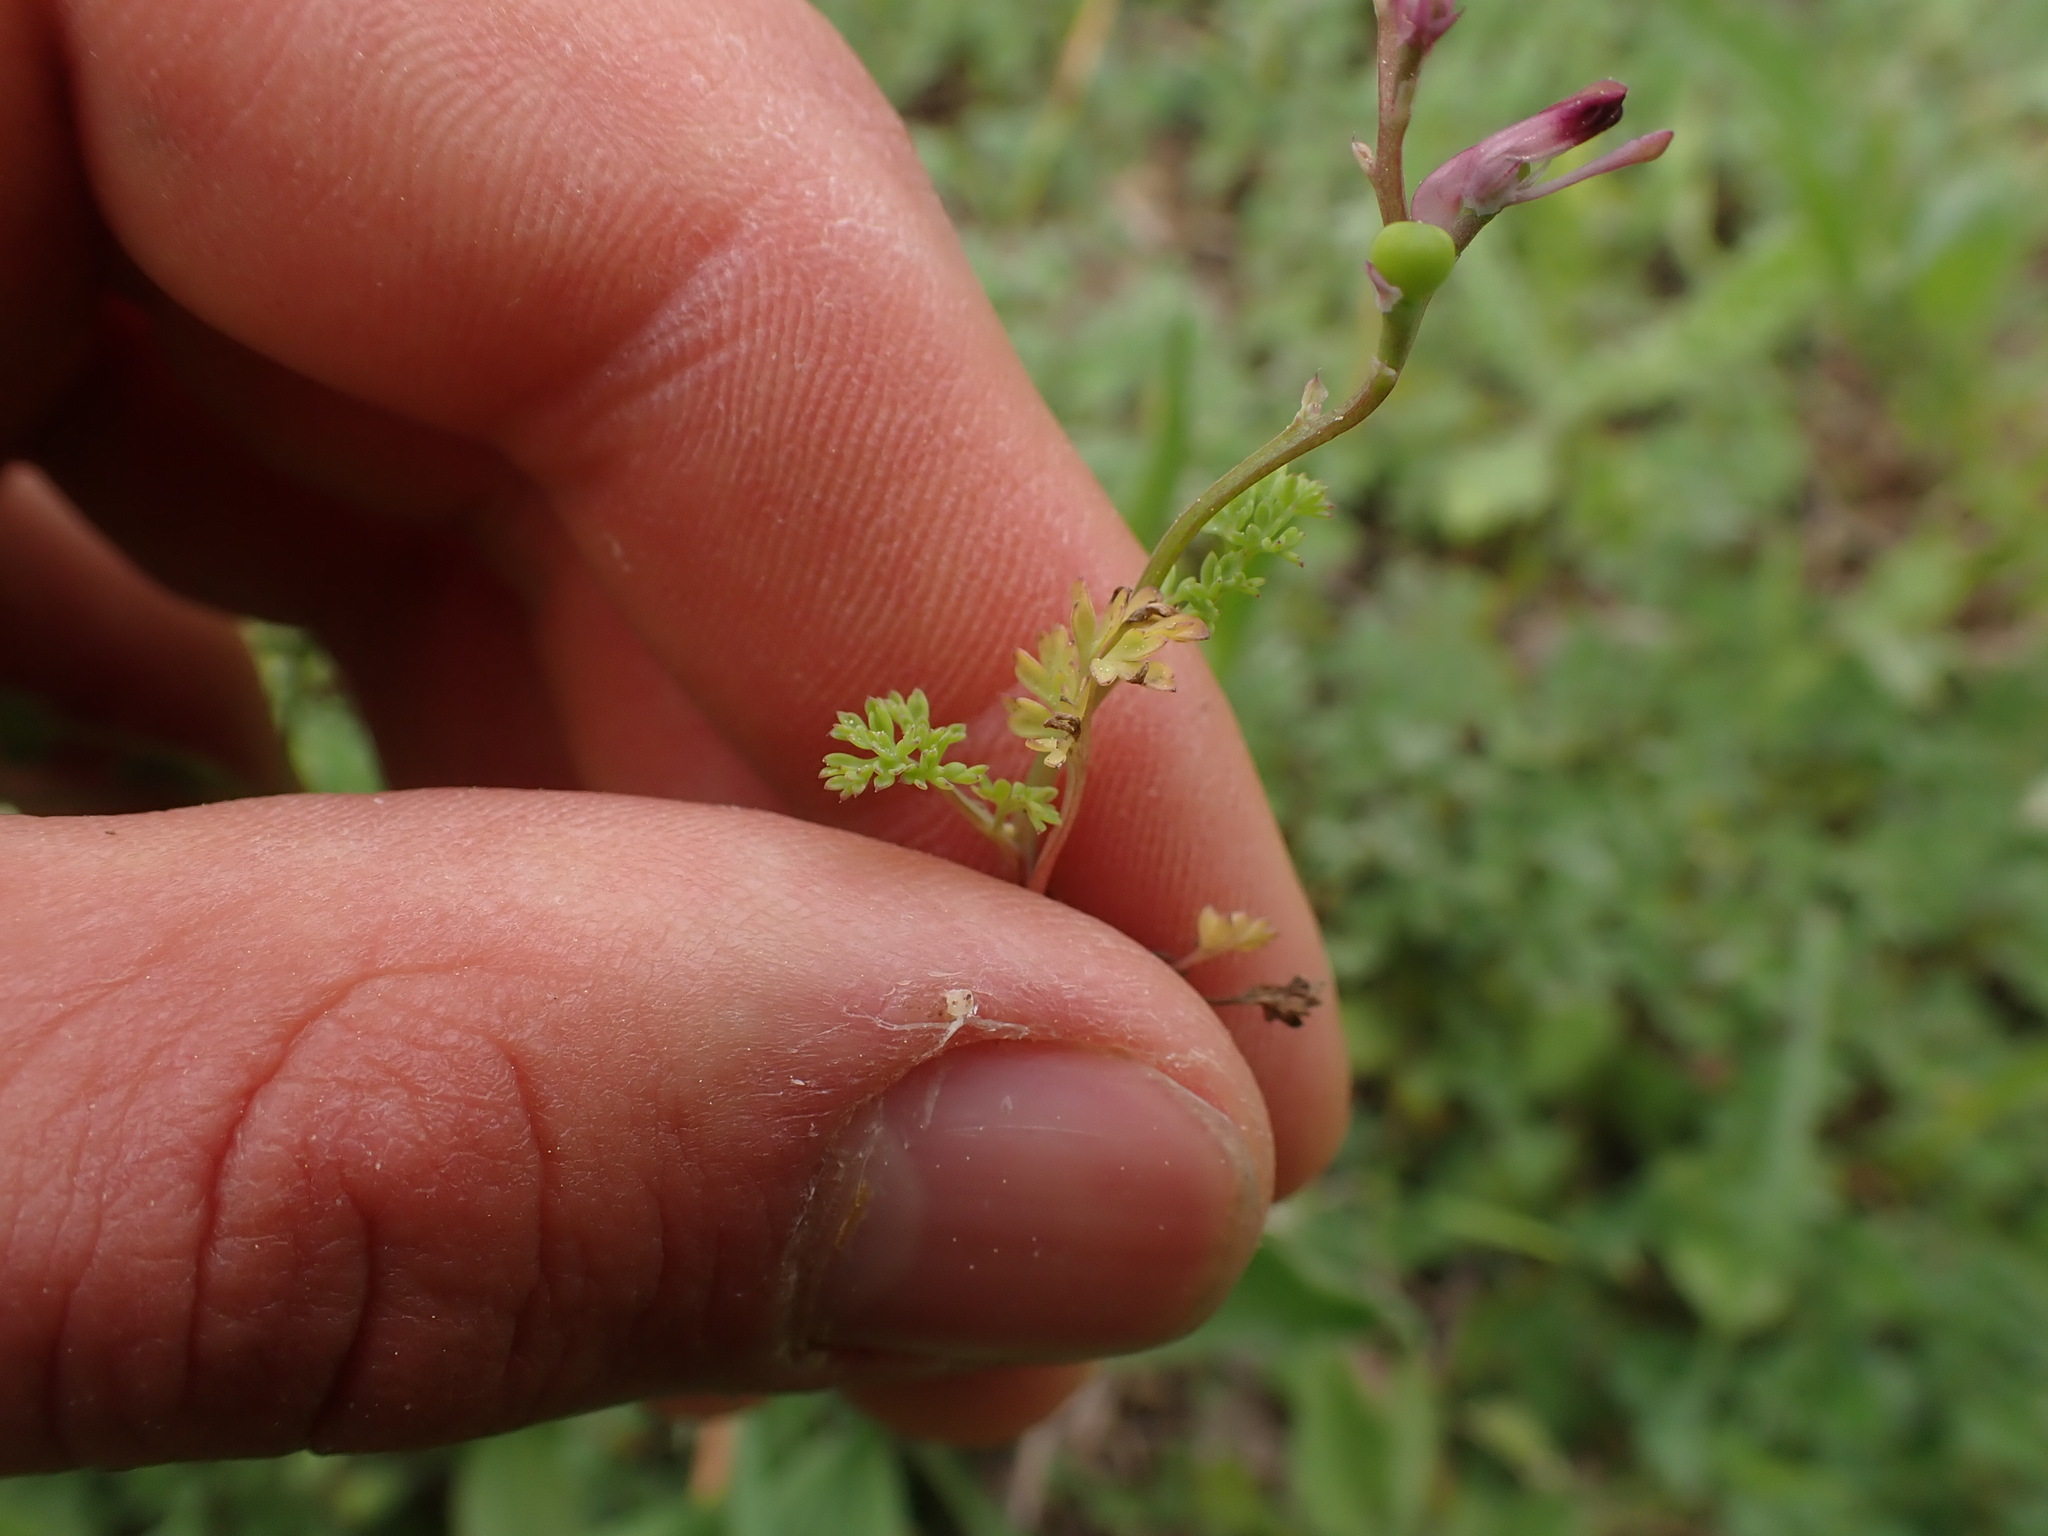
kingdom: Plantae
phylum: Tracheophyta
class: Magnoliopsida
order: Ranunculales
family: Papaveraceae
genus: Fumaria
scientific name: Fumaria officinalis
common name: Common fumitory
